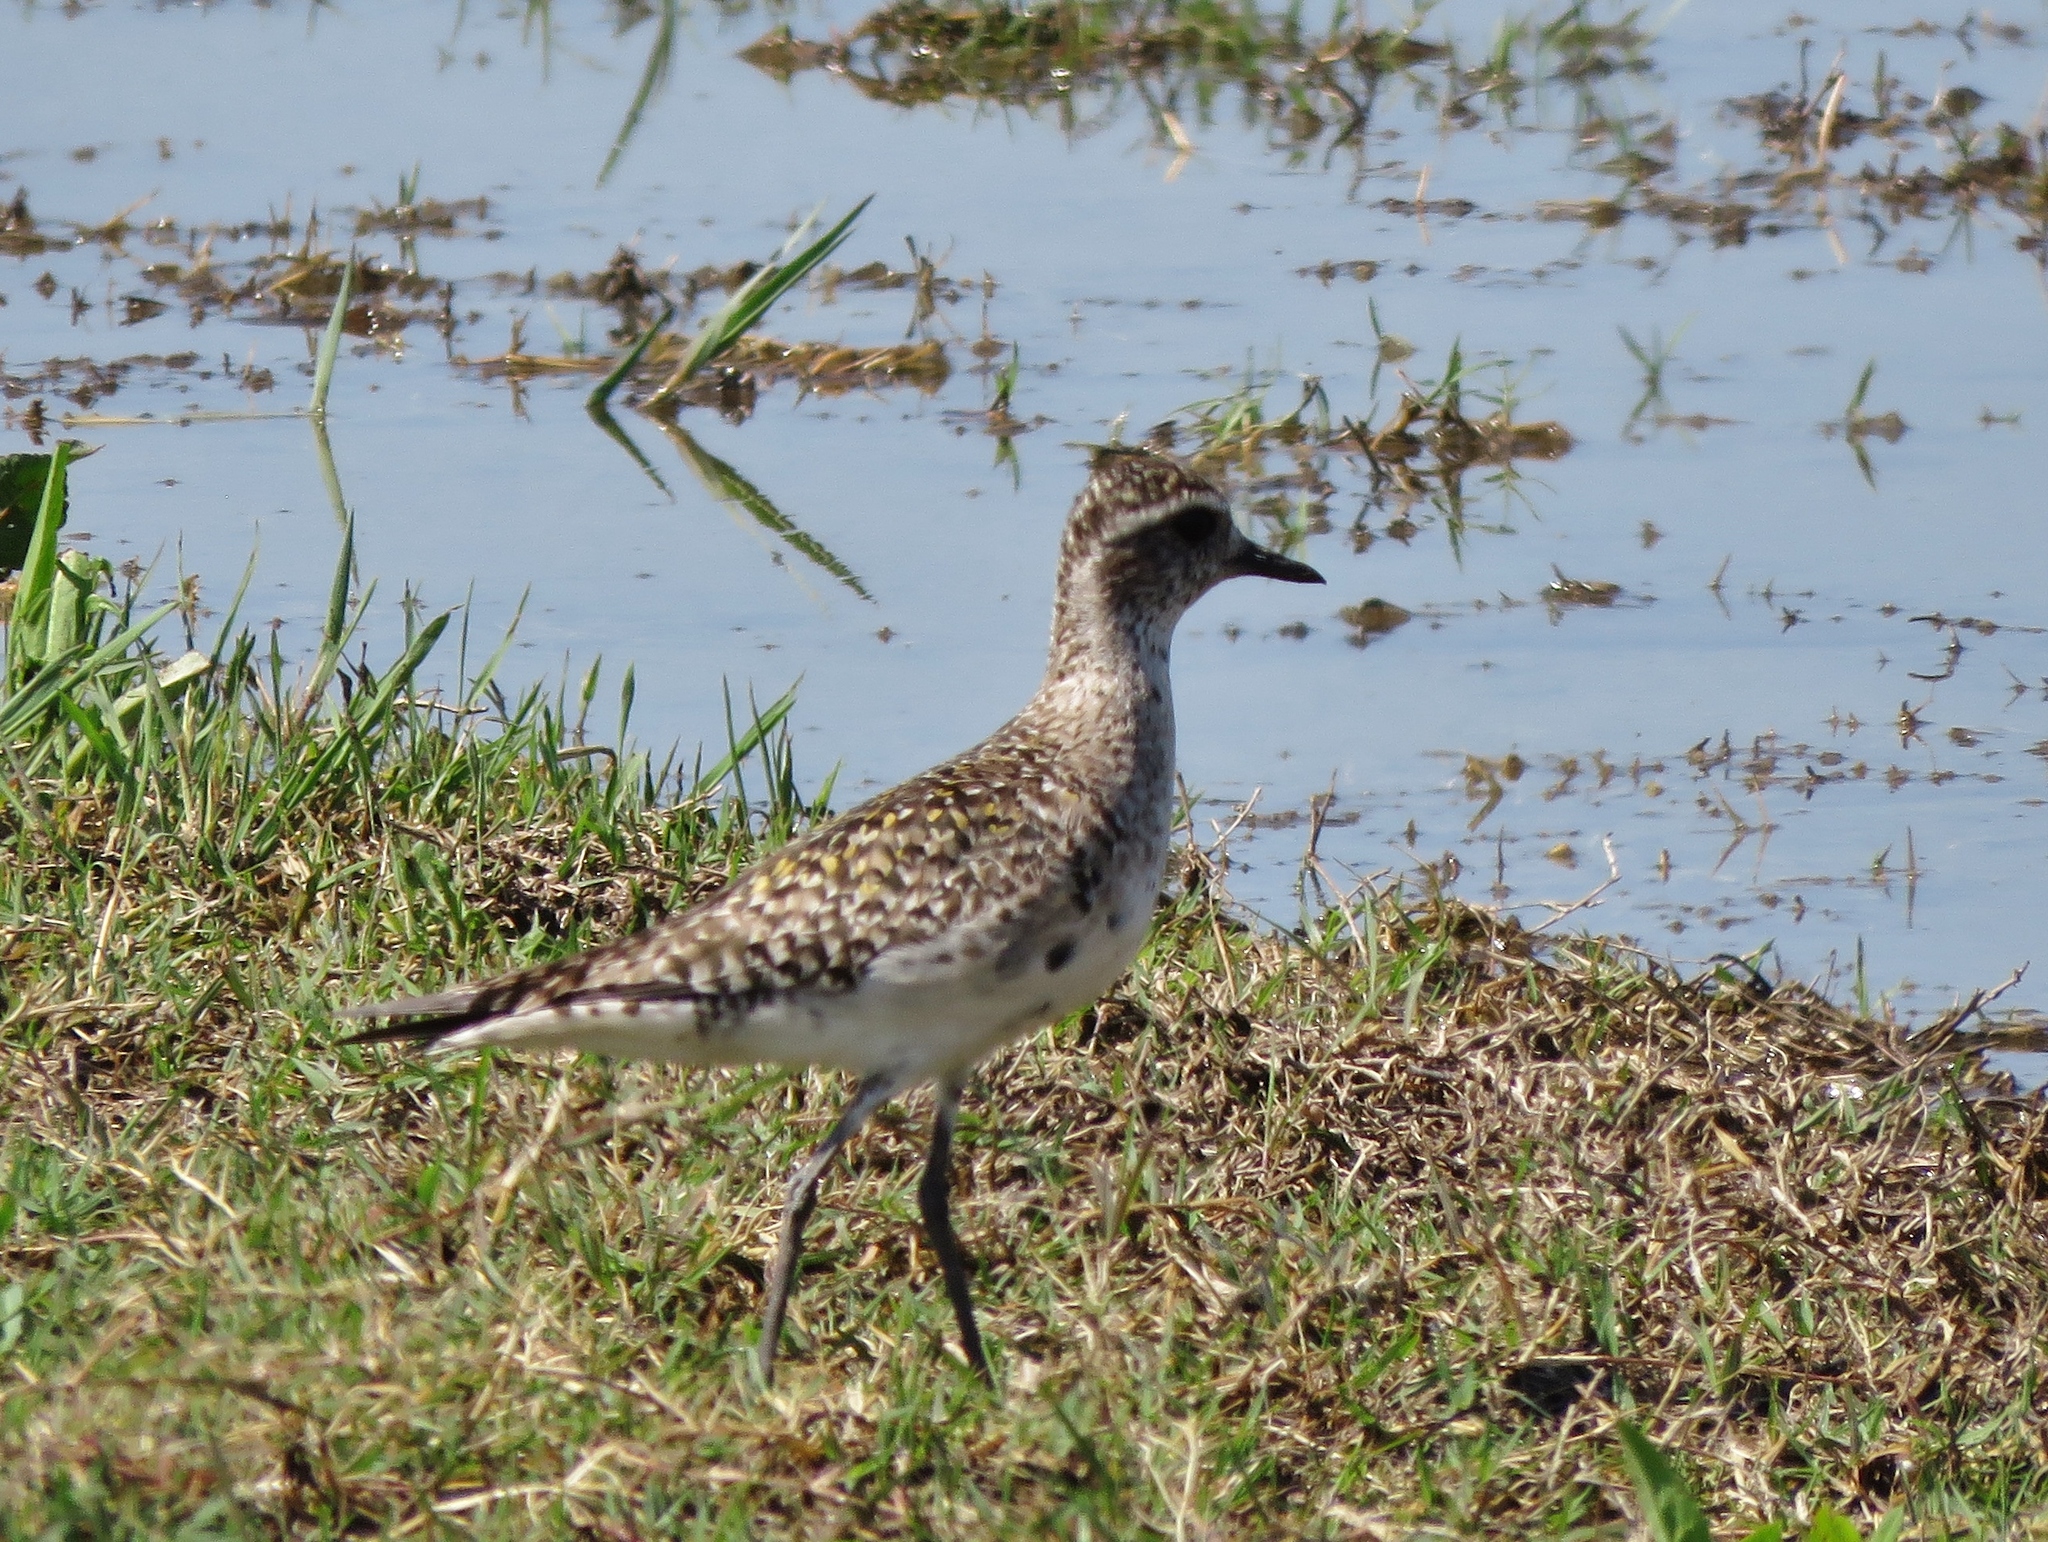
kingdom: Animalia
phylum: Chordata
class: Aves
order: Charadriiformes
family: Charadriidae
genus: Pluvialis
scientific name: Pluvialis dominica
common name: American golden plover
